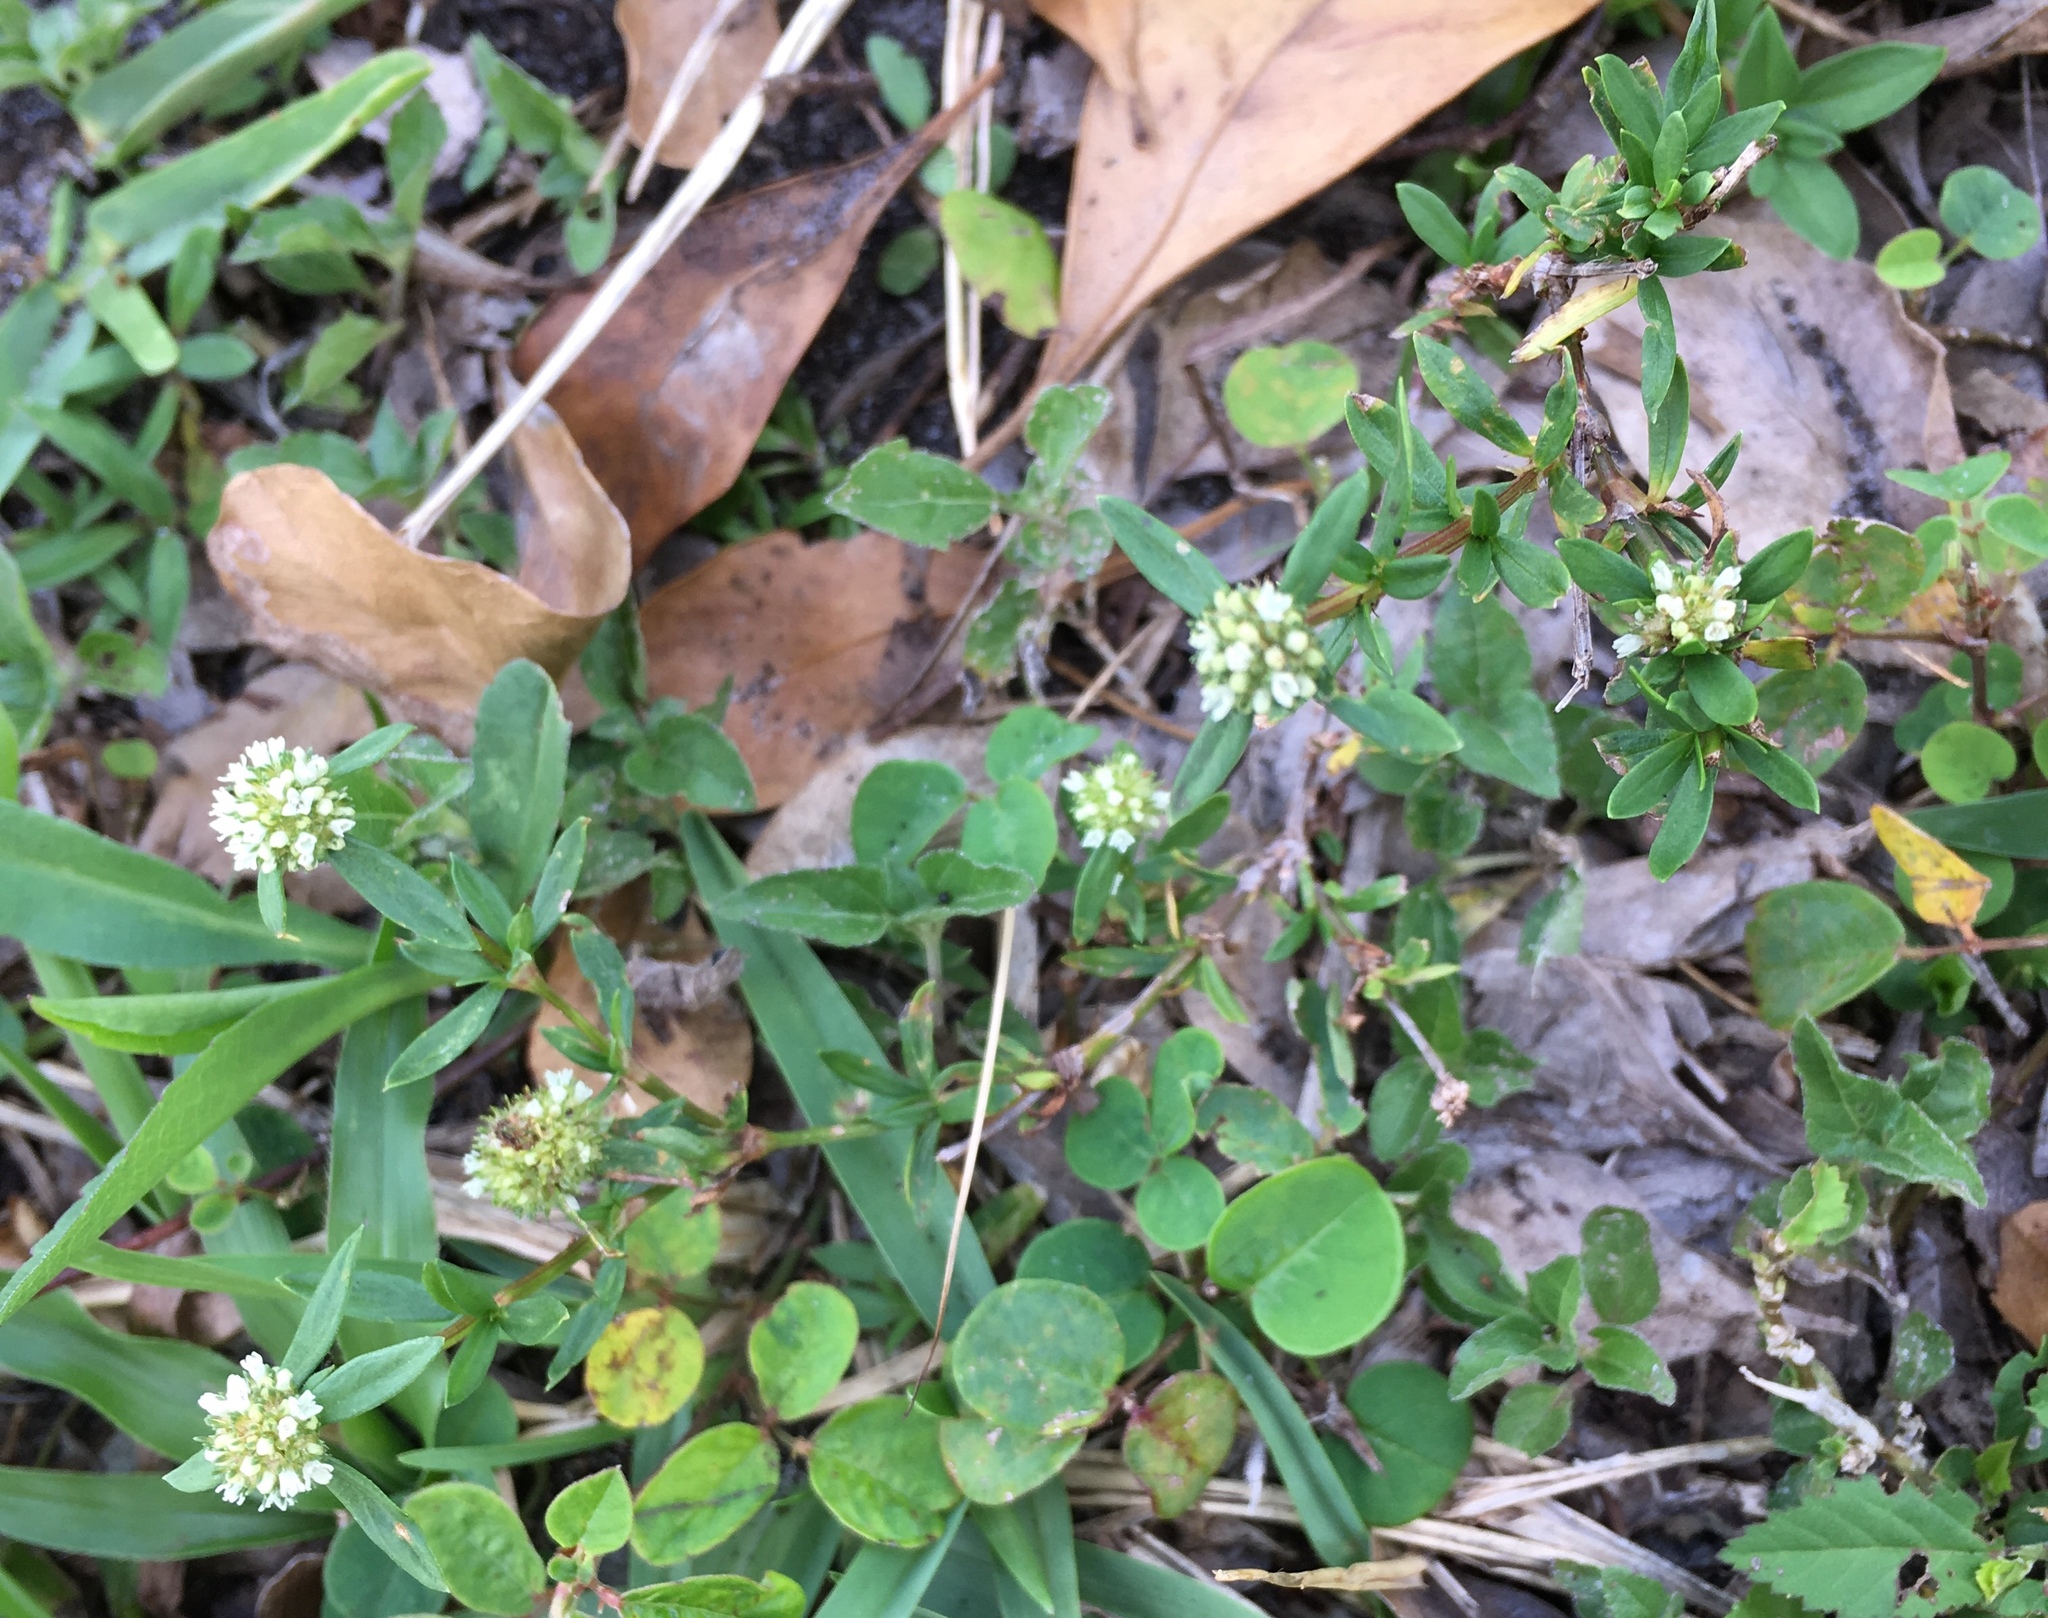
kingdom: Plantae
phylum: Tracheophyta
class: Magnoliopsida
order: Gentianales
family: Rubiaceae
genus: Spermacoce
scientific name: Spermacoce verticillata
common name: Shrubby false buttonweed
